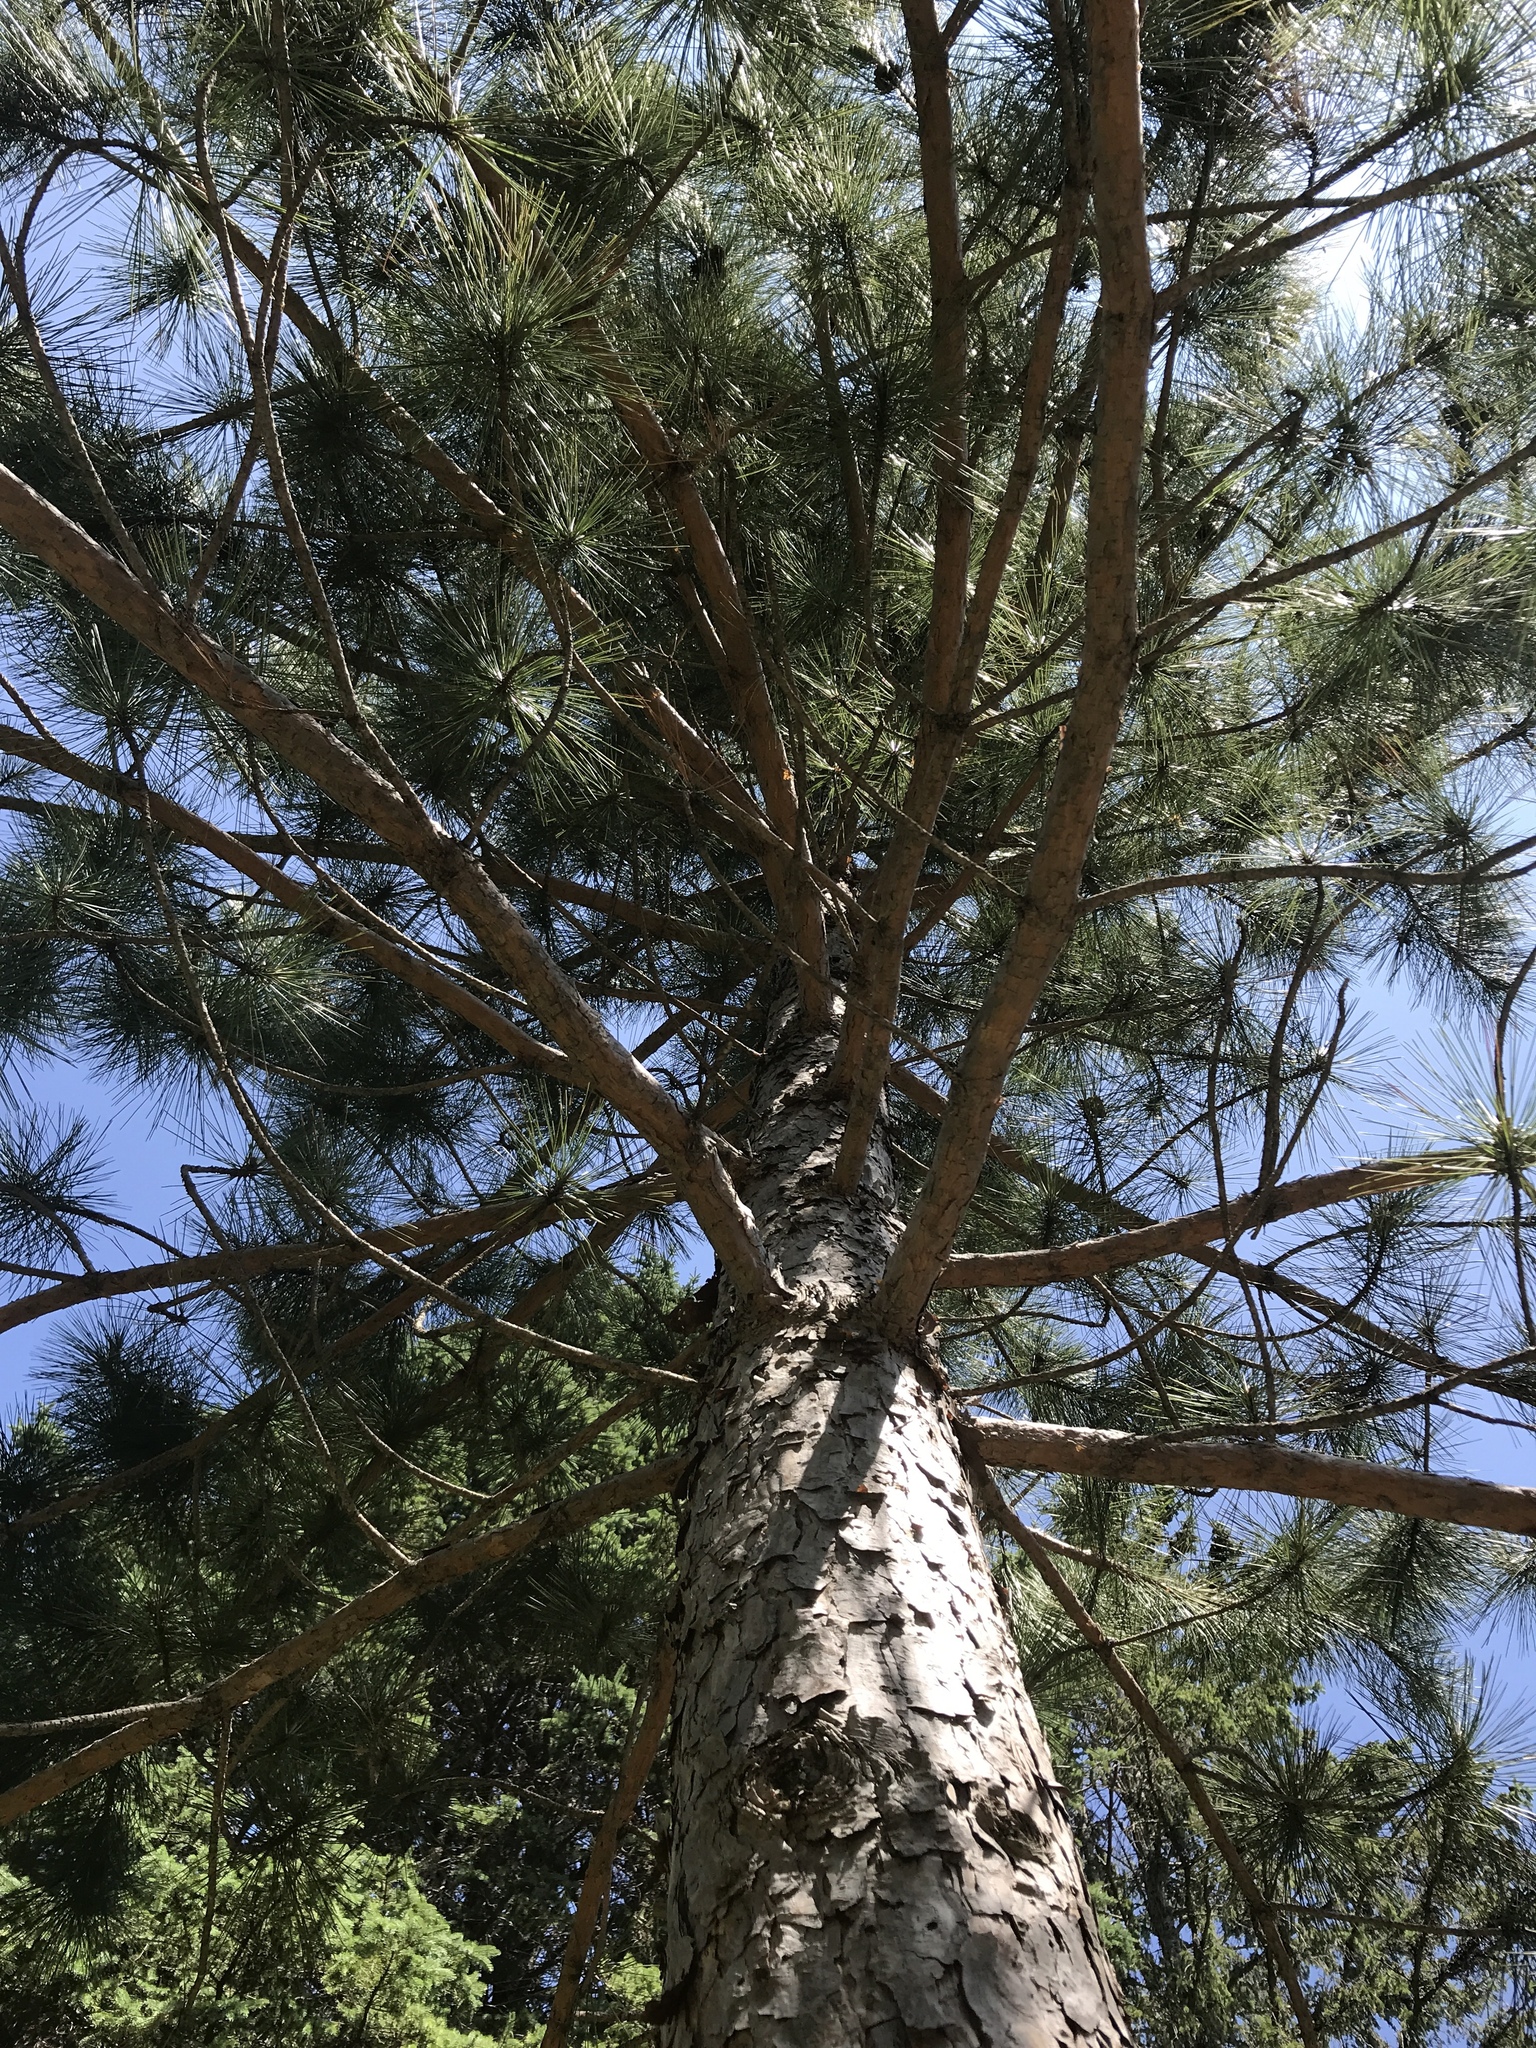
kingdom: Plantae
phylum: Tracheophyta
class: Pinopsida
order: Pinales
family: Pinaceae
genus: Pinus
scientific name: Pinus resinosa
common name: Norway pine
